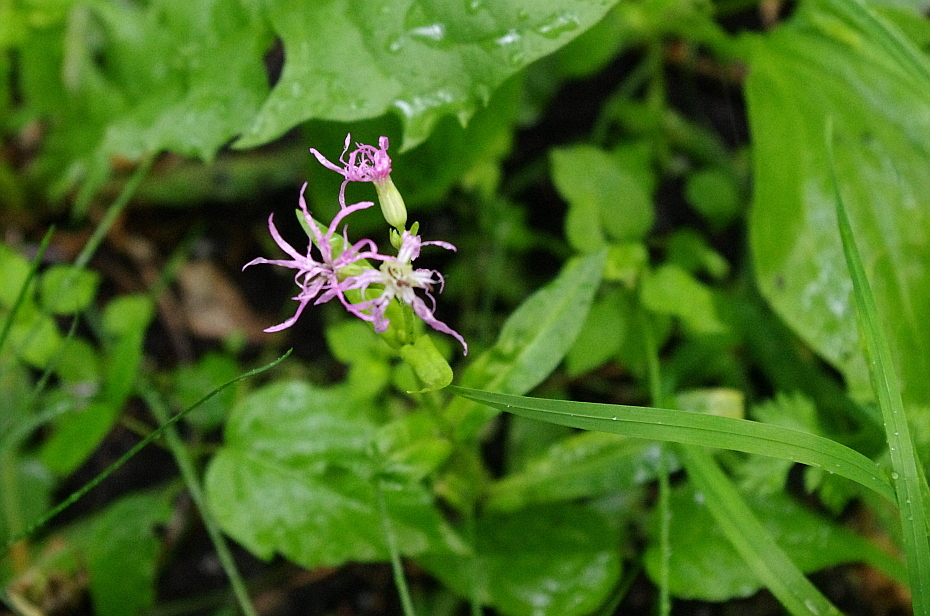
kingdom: Plantae
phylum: Tracheophyta
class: Magnoliopsida
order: Caryophyllales
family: Caryophyllaceae
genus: Silene
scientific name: Silene flos-cuculi
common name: Ragged-robin
